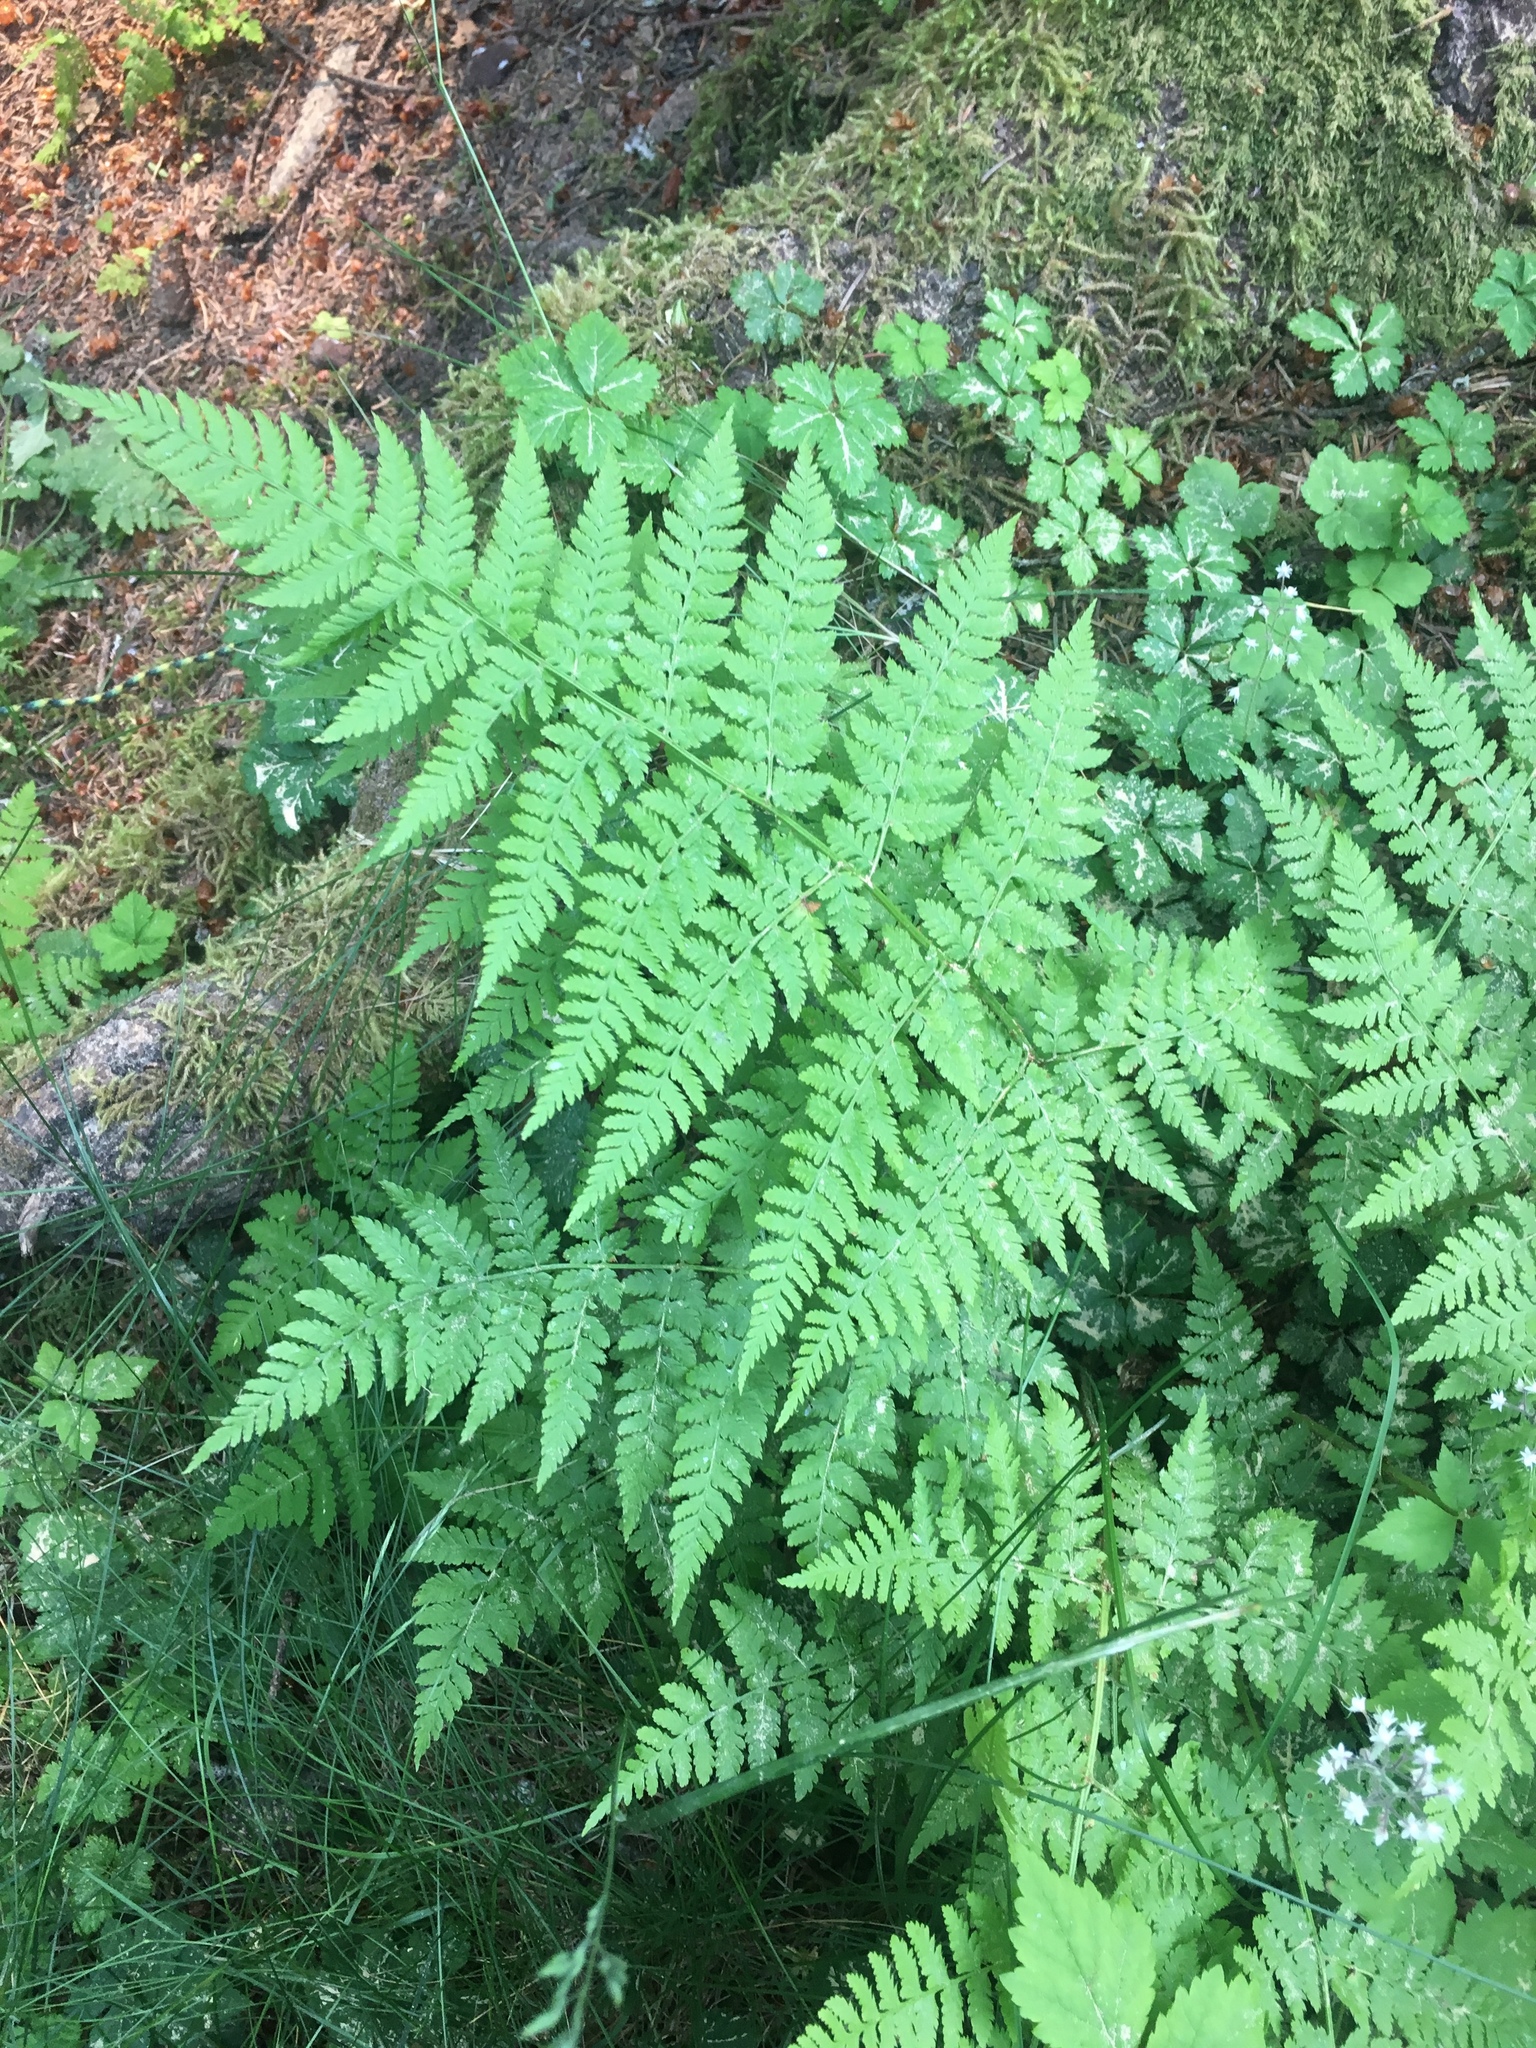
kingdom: Plantae
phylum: Tracheophyta
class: Polypodiopsida
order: Polypodiales
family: Dryopteridaceae
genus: Dryopteris
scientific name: Dryopteris expansa
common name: Northern buckler fern
